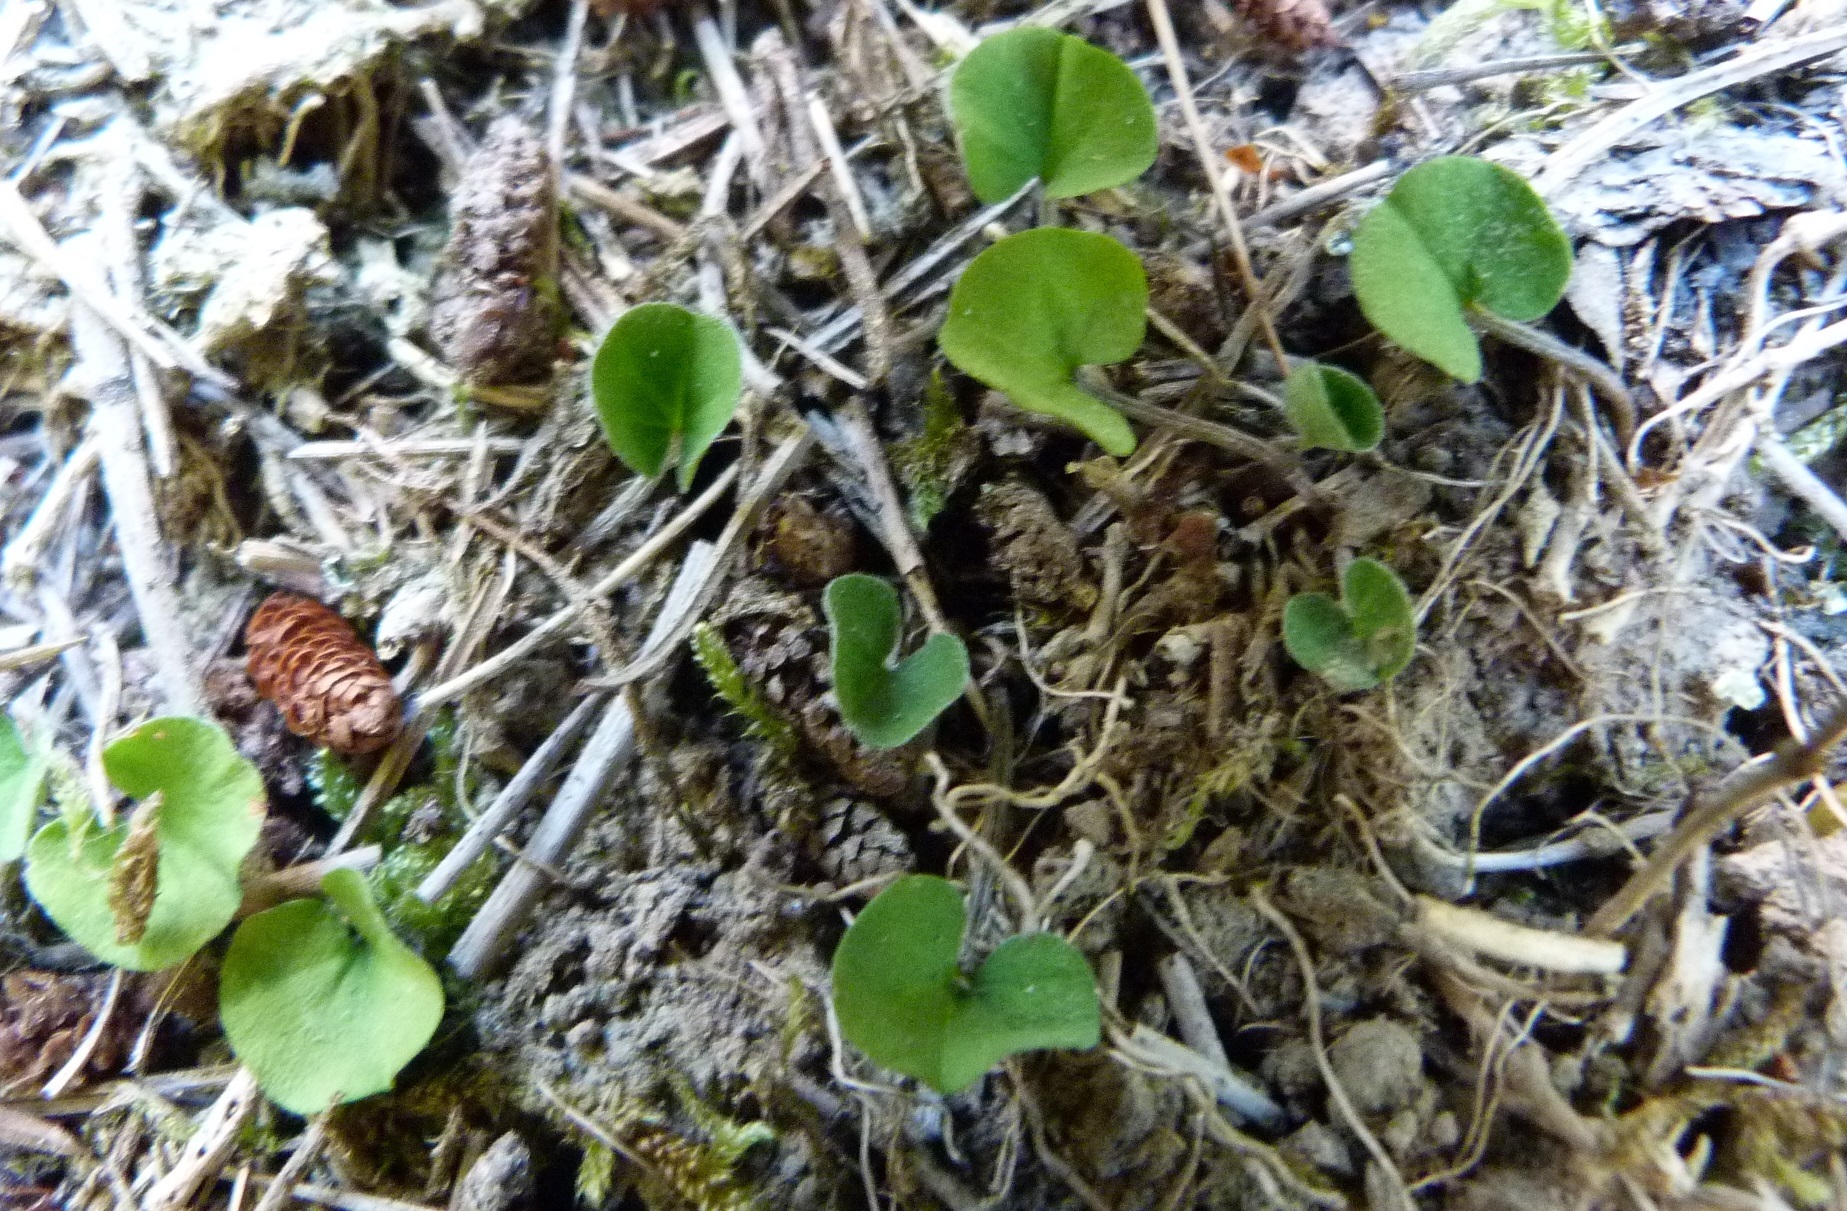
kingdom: Plantae
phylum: Tracheophyta
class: Magnoliopsida
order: Solanales
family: Convolvulaceae
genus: Dichondra
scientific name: Dichondra repens
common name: Kidneyweed
